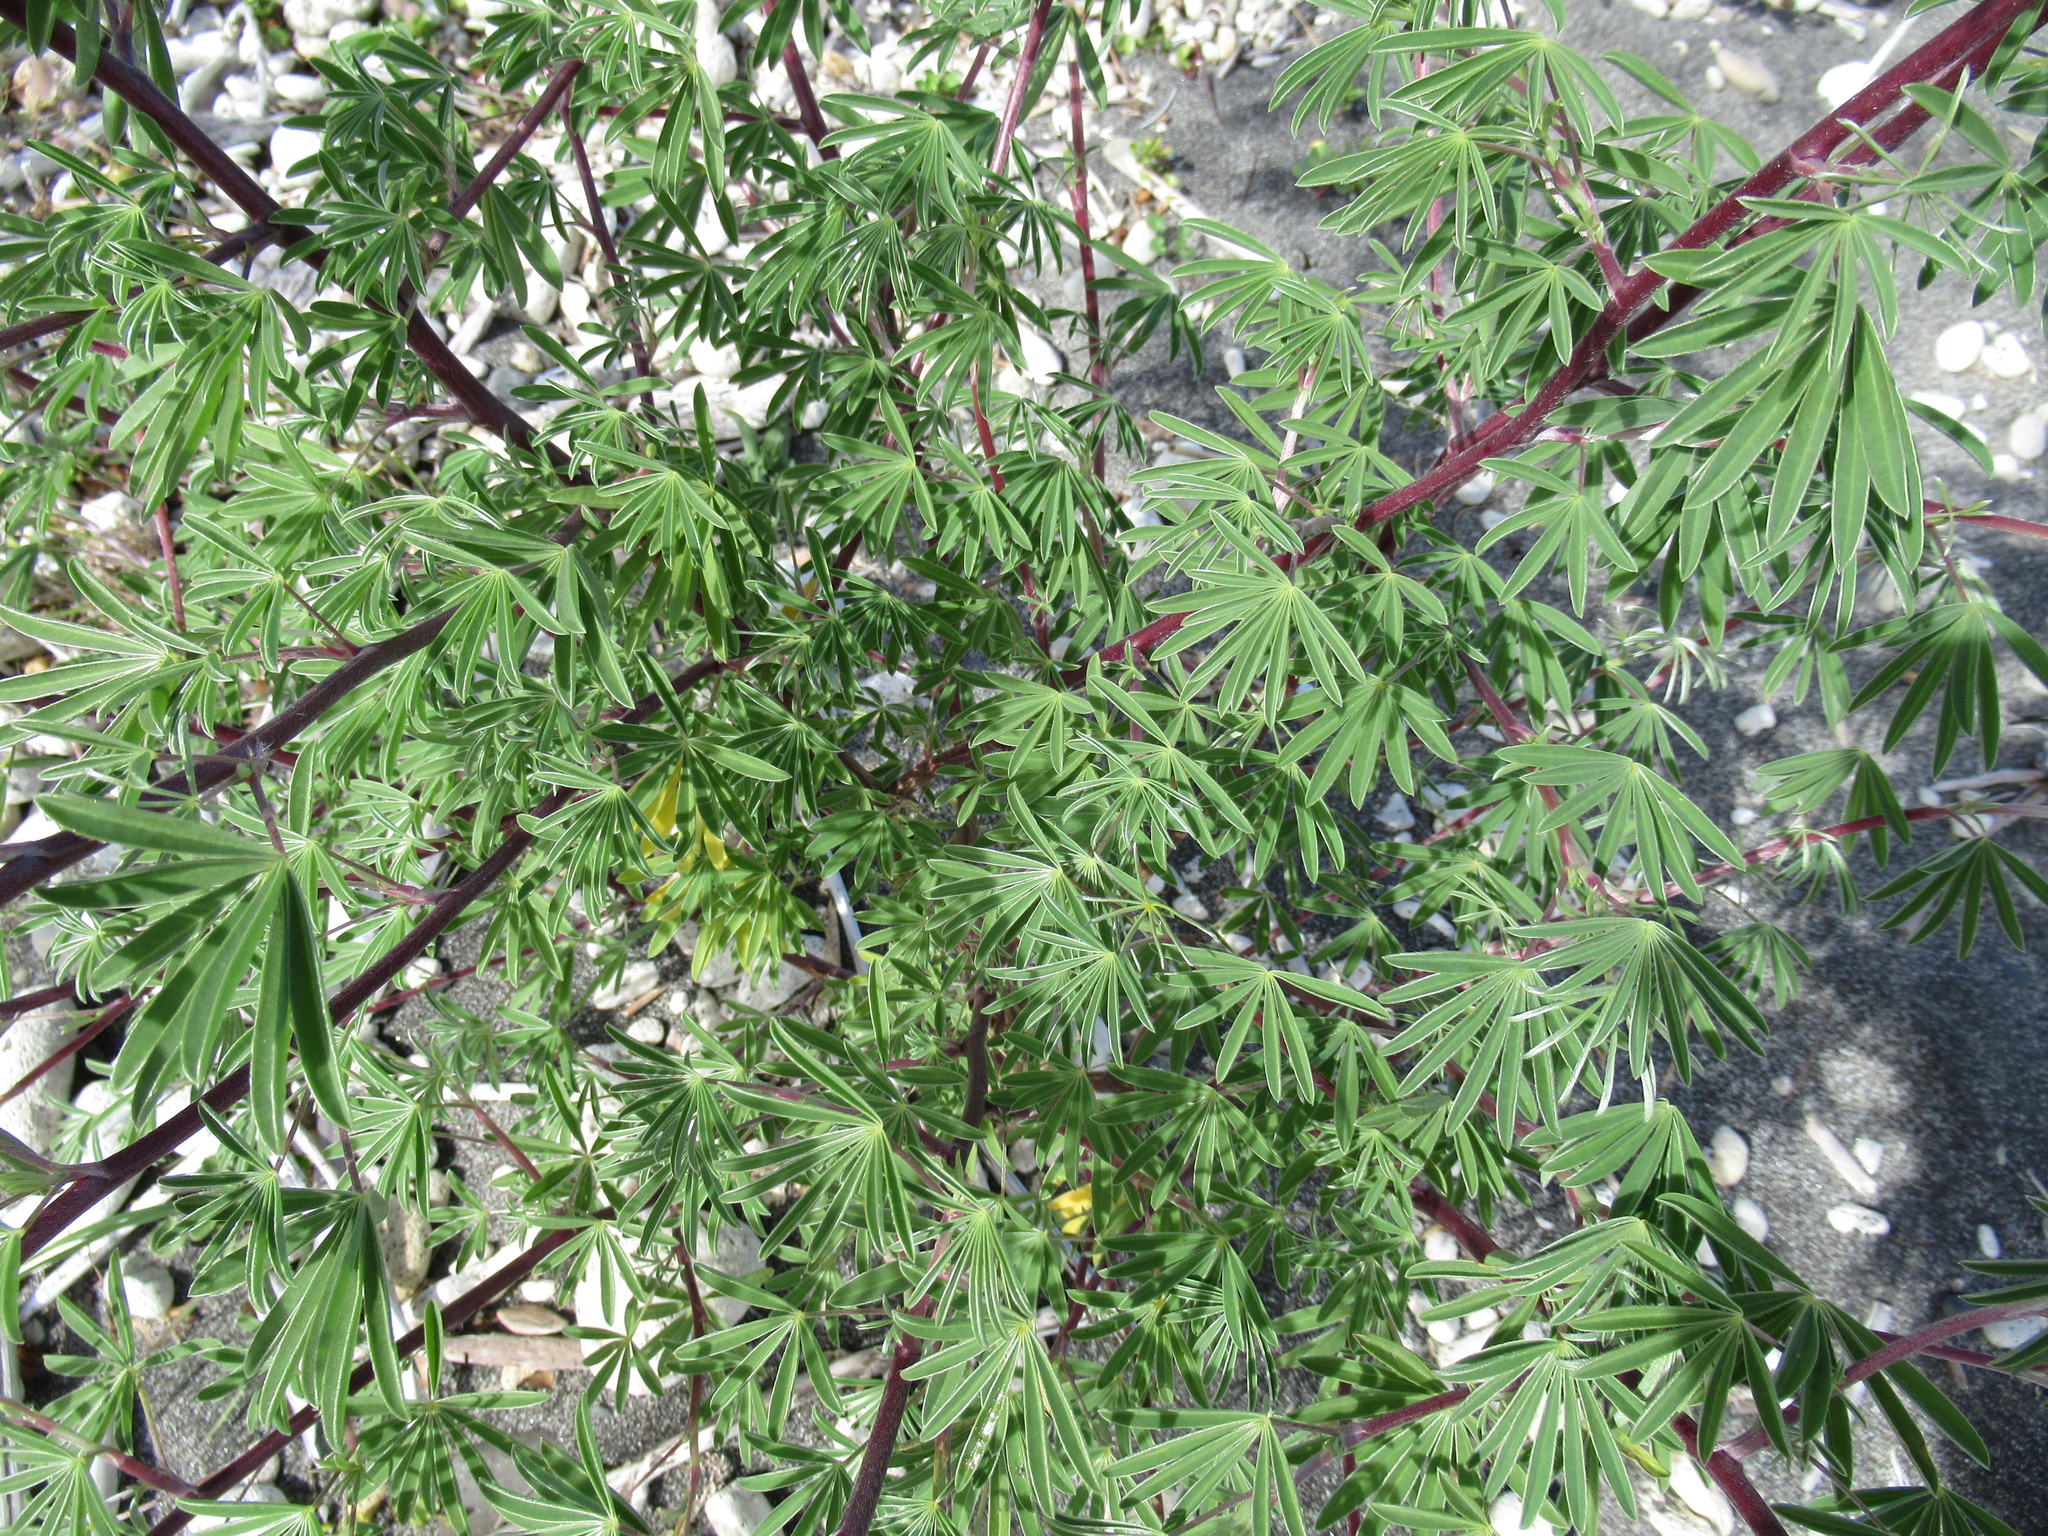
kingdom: Plantae
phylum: Tracheophyta
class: Magnoliopsida
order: Fabales
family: Fabaceae
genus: Lupinus
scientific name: Lupinus arboreus
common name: Yellow bush lupine
